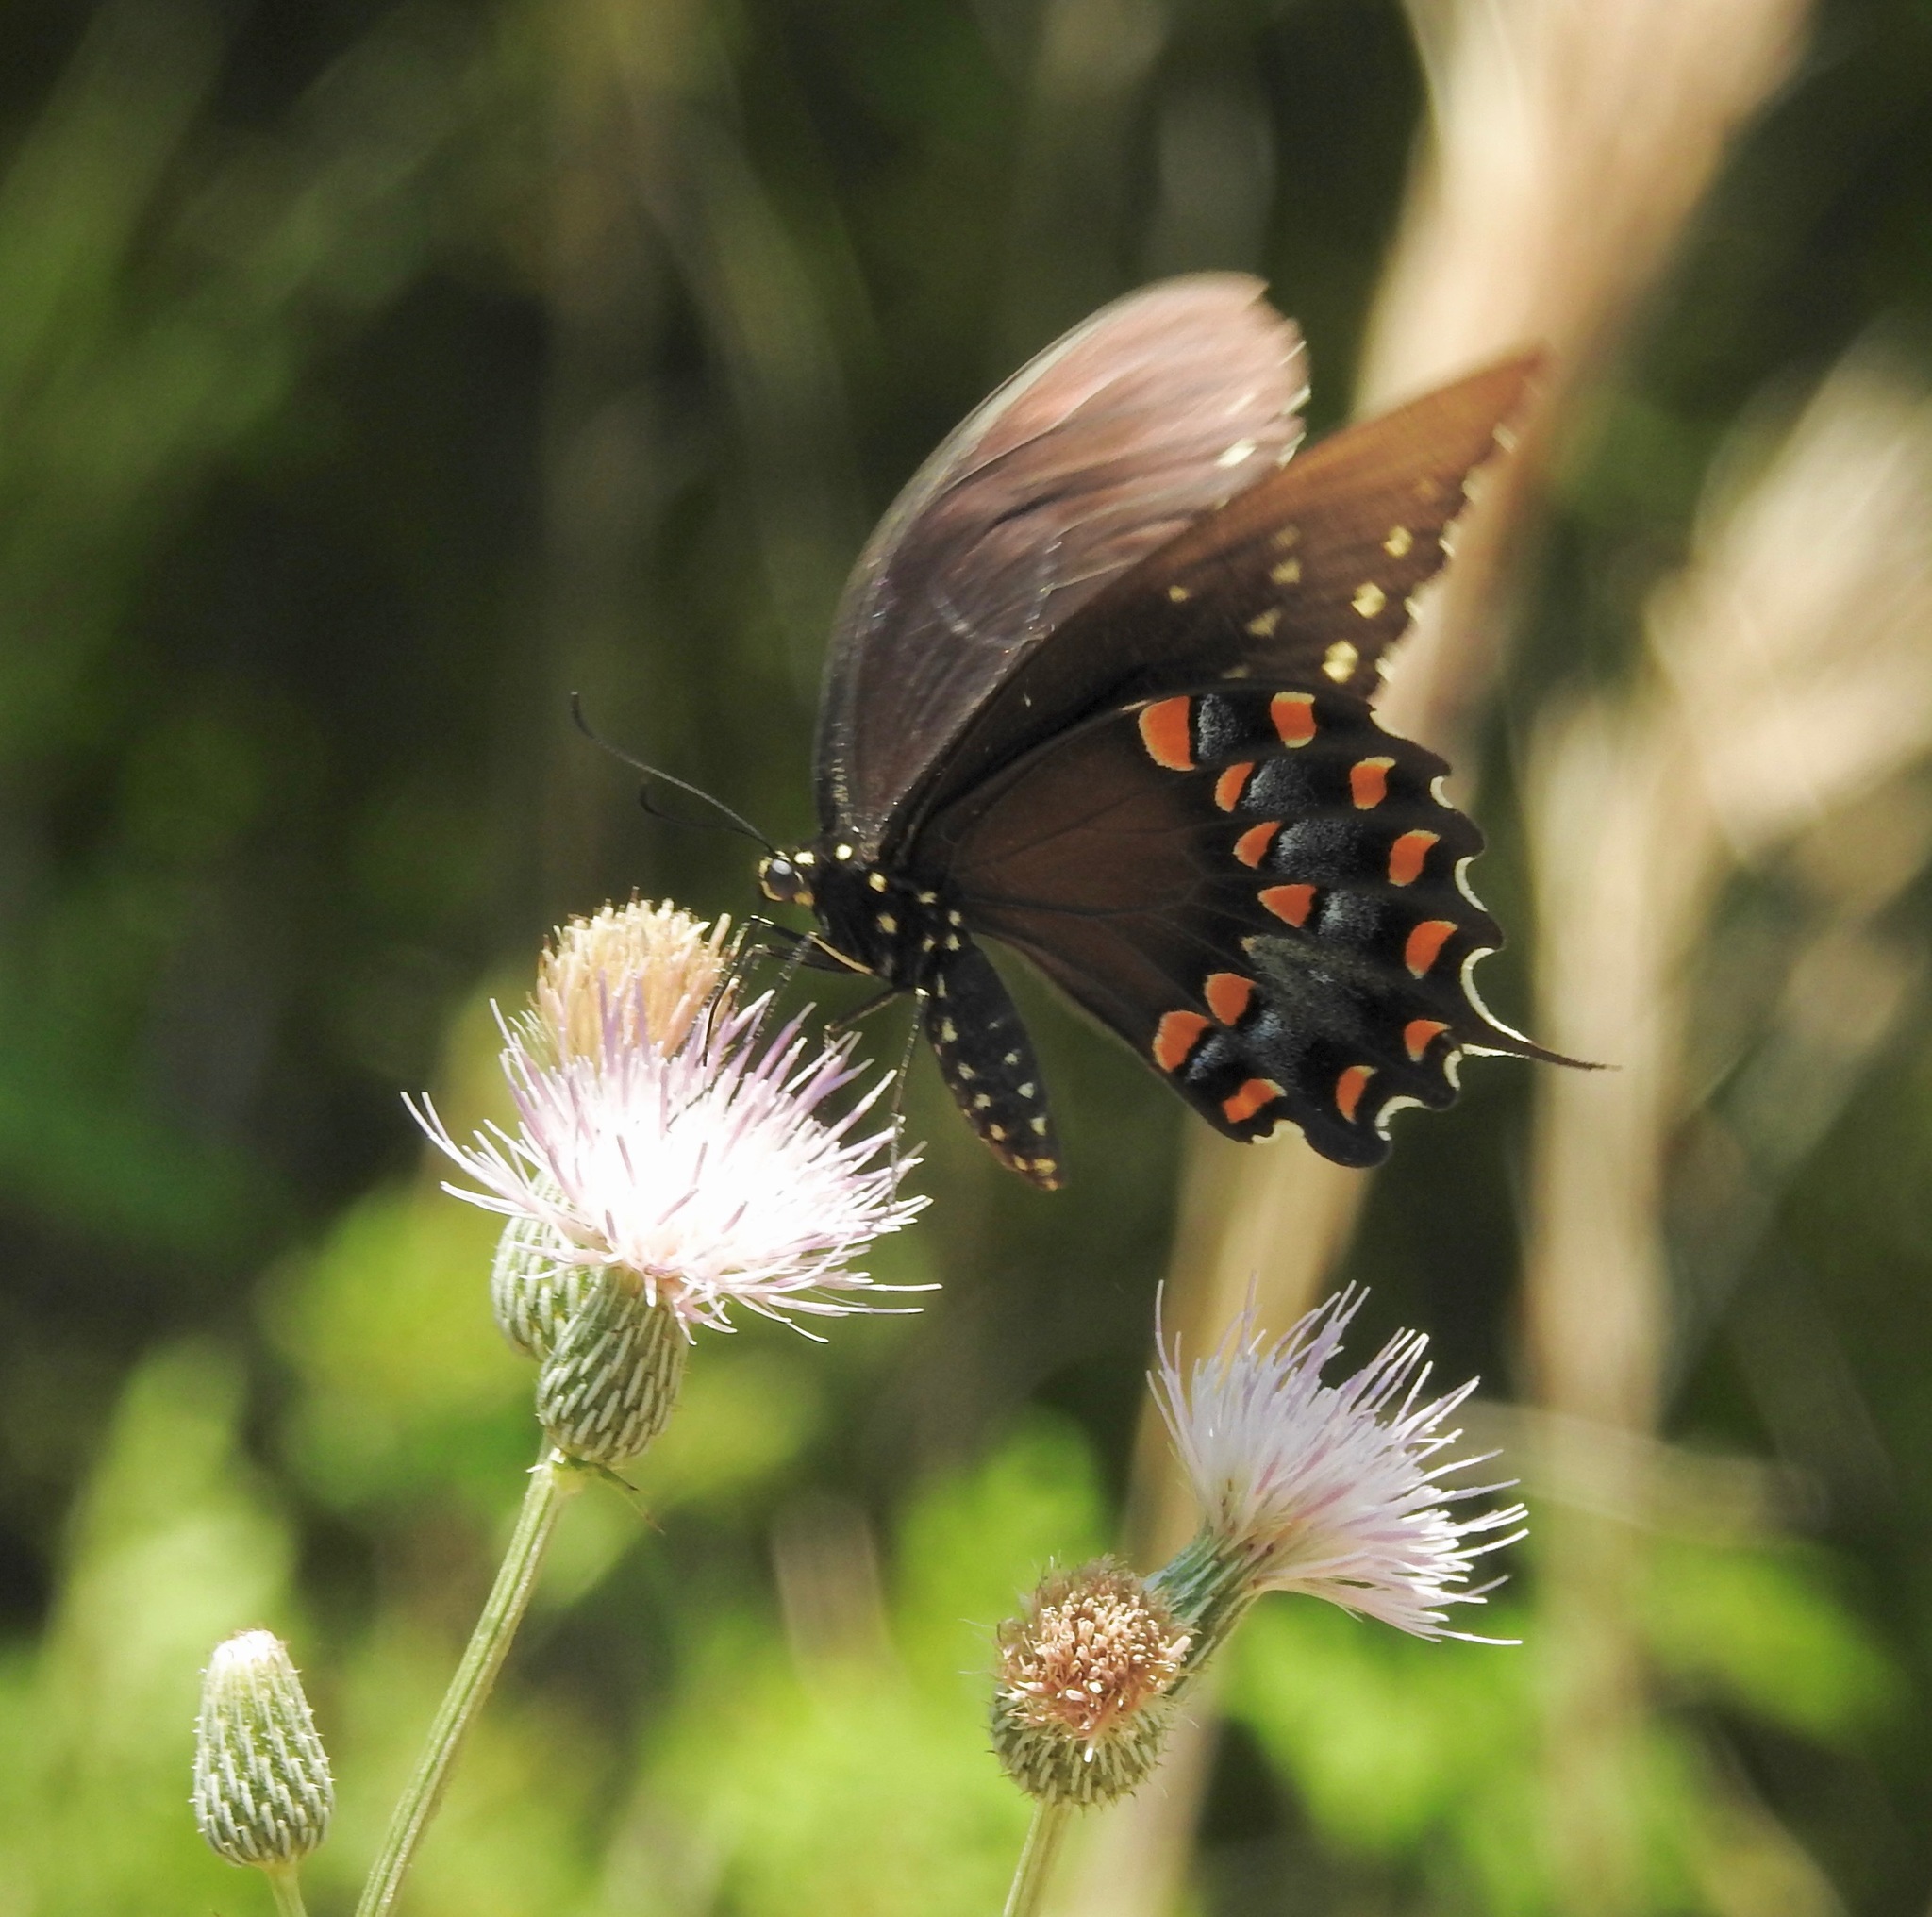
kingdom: Animalia
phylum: Arthropoda
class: Insecta
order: Lepidoptera
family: Papilionidae
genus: Papilio
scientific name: Papilio troilus
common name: Spicebush swallowtail
